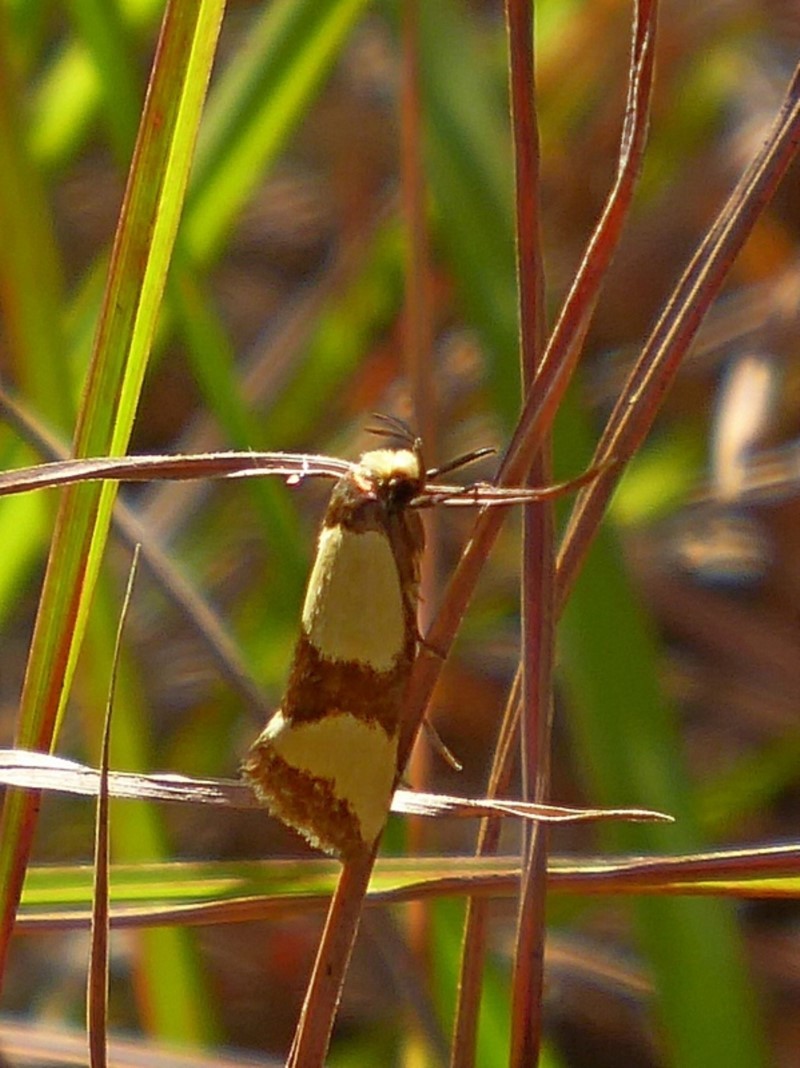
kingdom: Animalia
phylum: Arthropoda
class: Insecta
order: Lepidoptera
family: Oecophoridae
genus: Chrysonoma
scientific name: Chrysonoma fascialis
